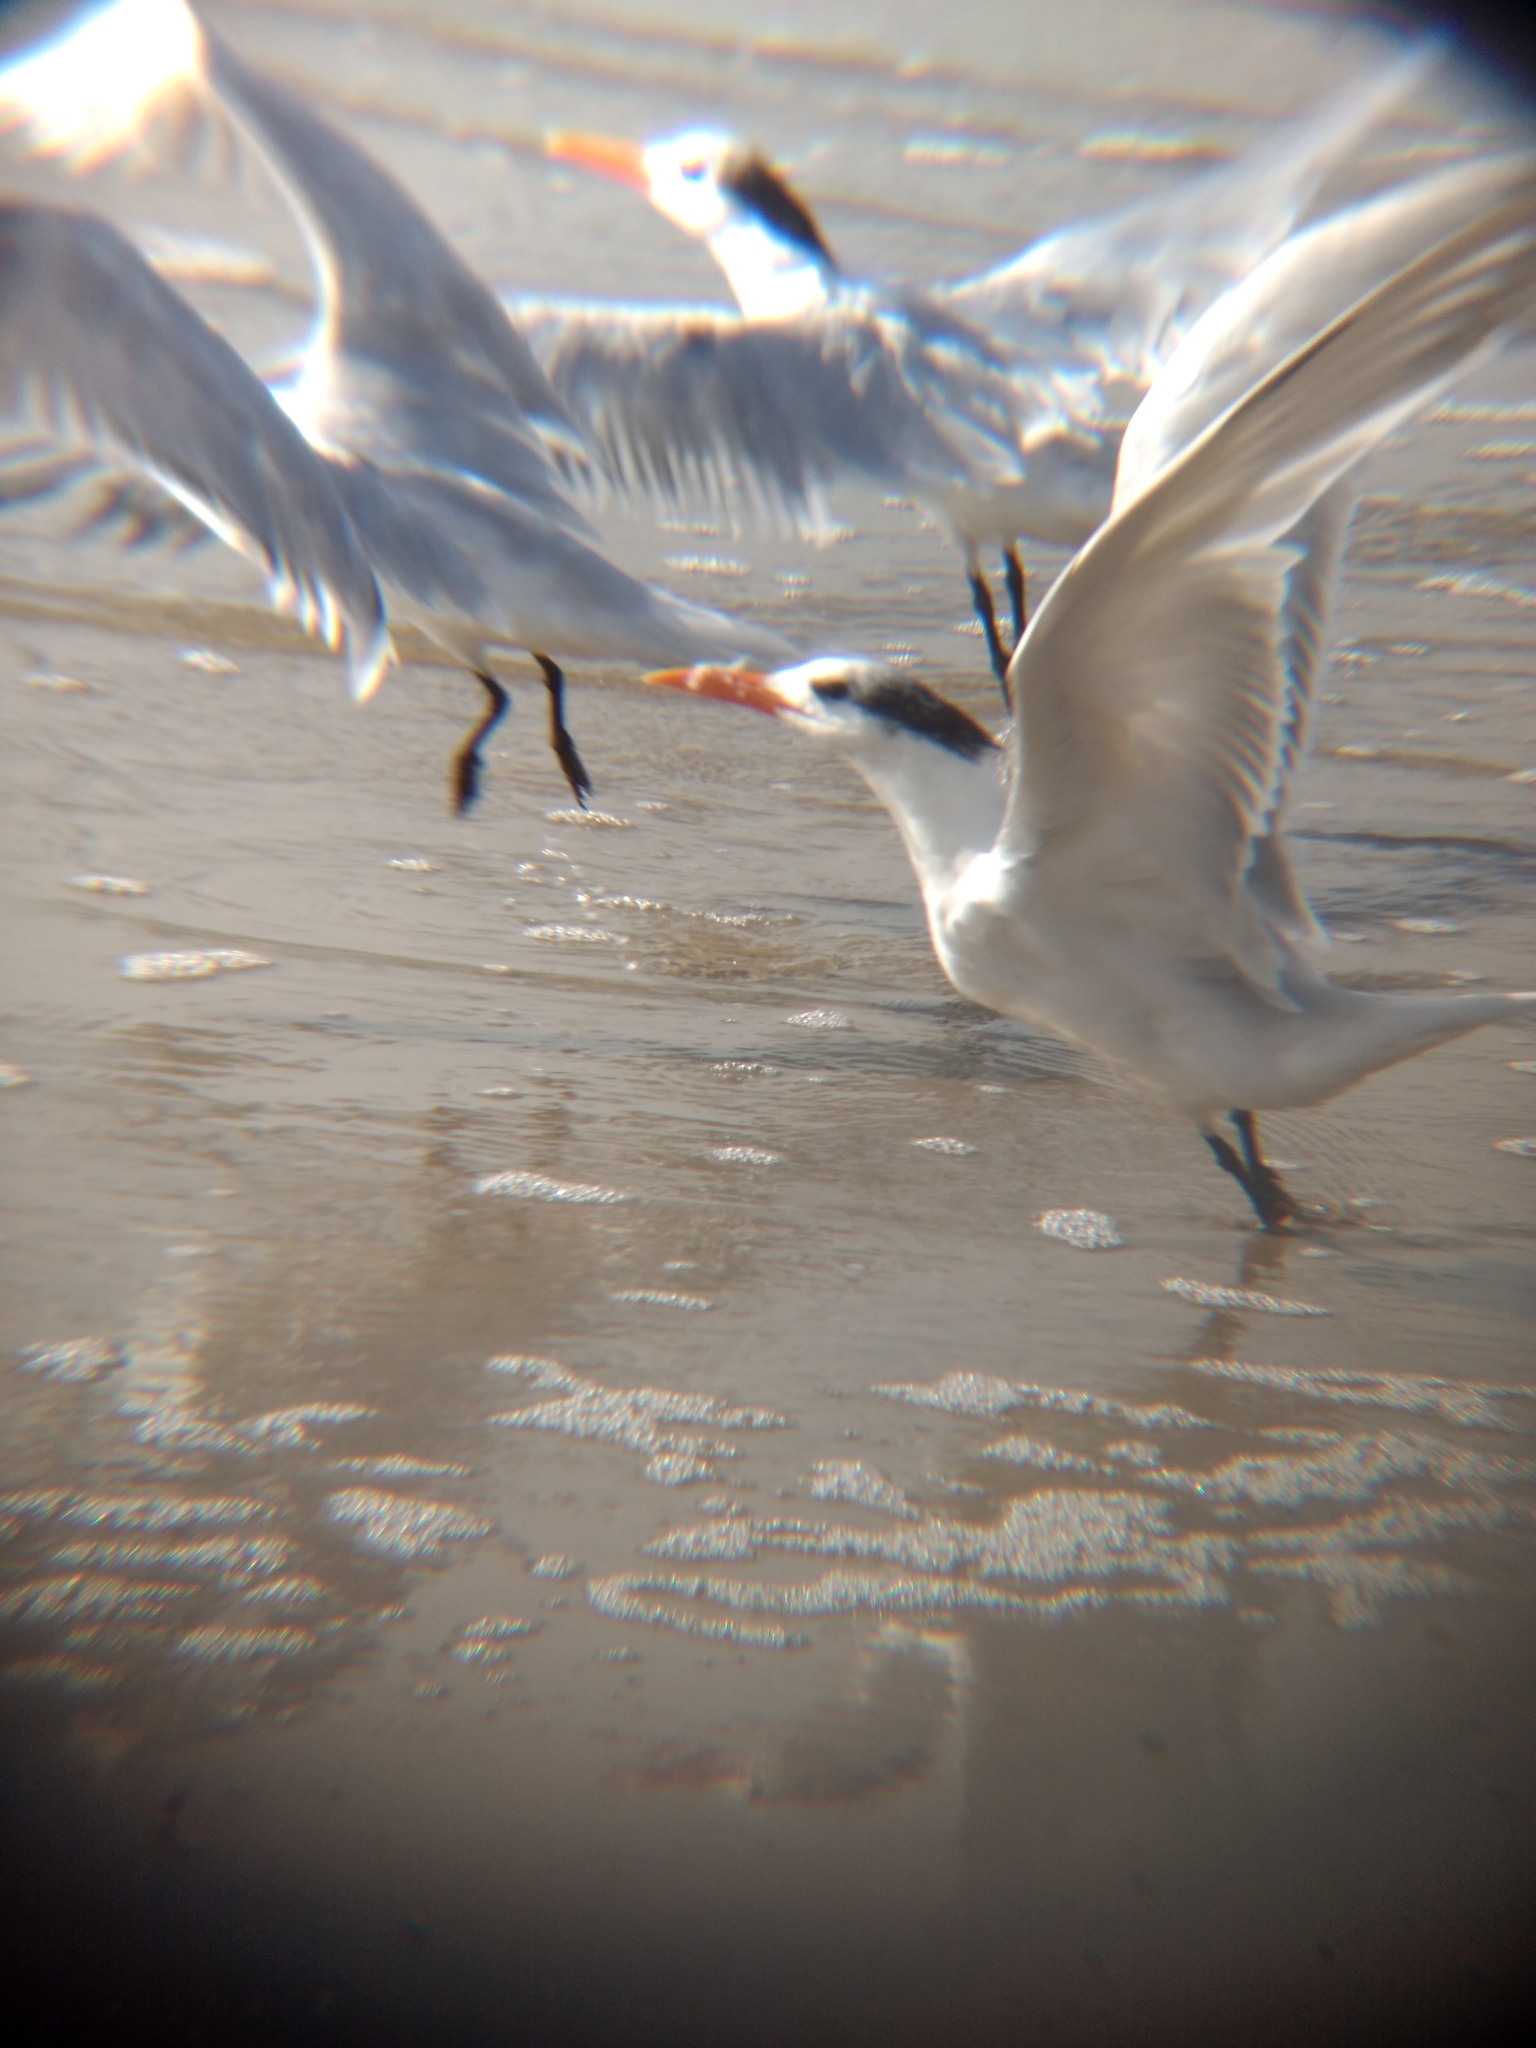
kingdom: Animalia
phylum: Chordata
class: Aves
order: Charadriiformes
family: Laridae
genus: Thalasseus
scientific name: Thalasseus maximus
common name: Royal tern
